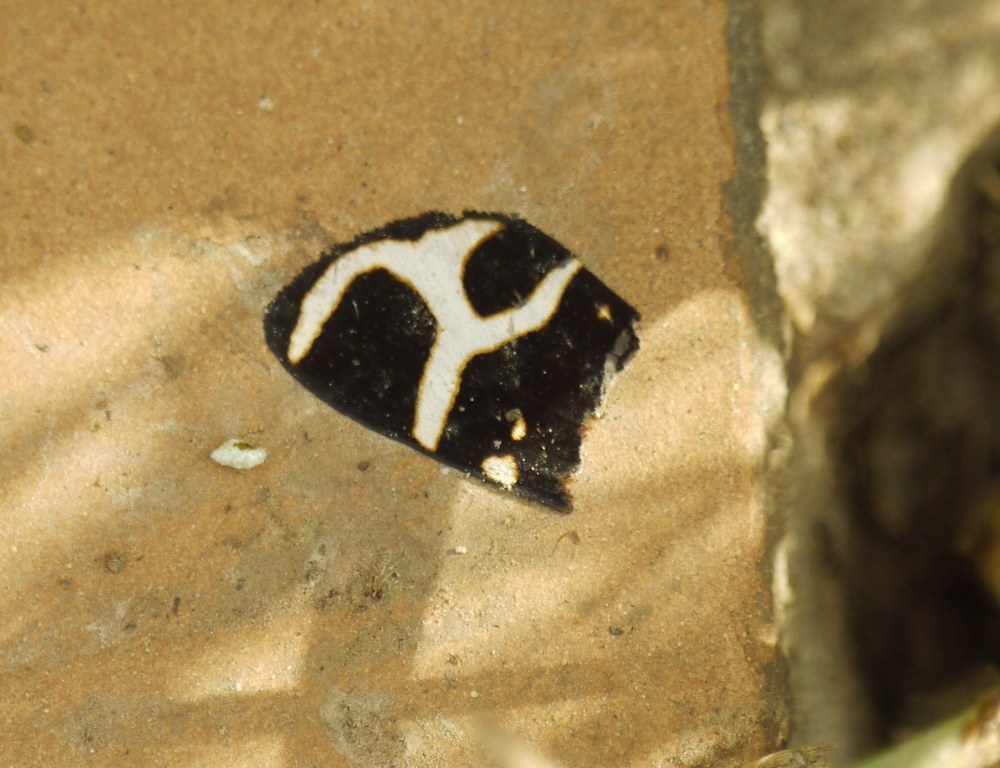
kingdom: Animalia
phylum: Arthropoda
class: Insecta
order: Lepidoptera
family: Erebidae
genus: Eucharia
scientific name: Eucharia festiva
